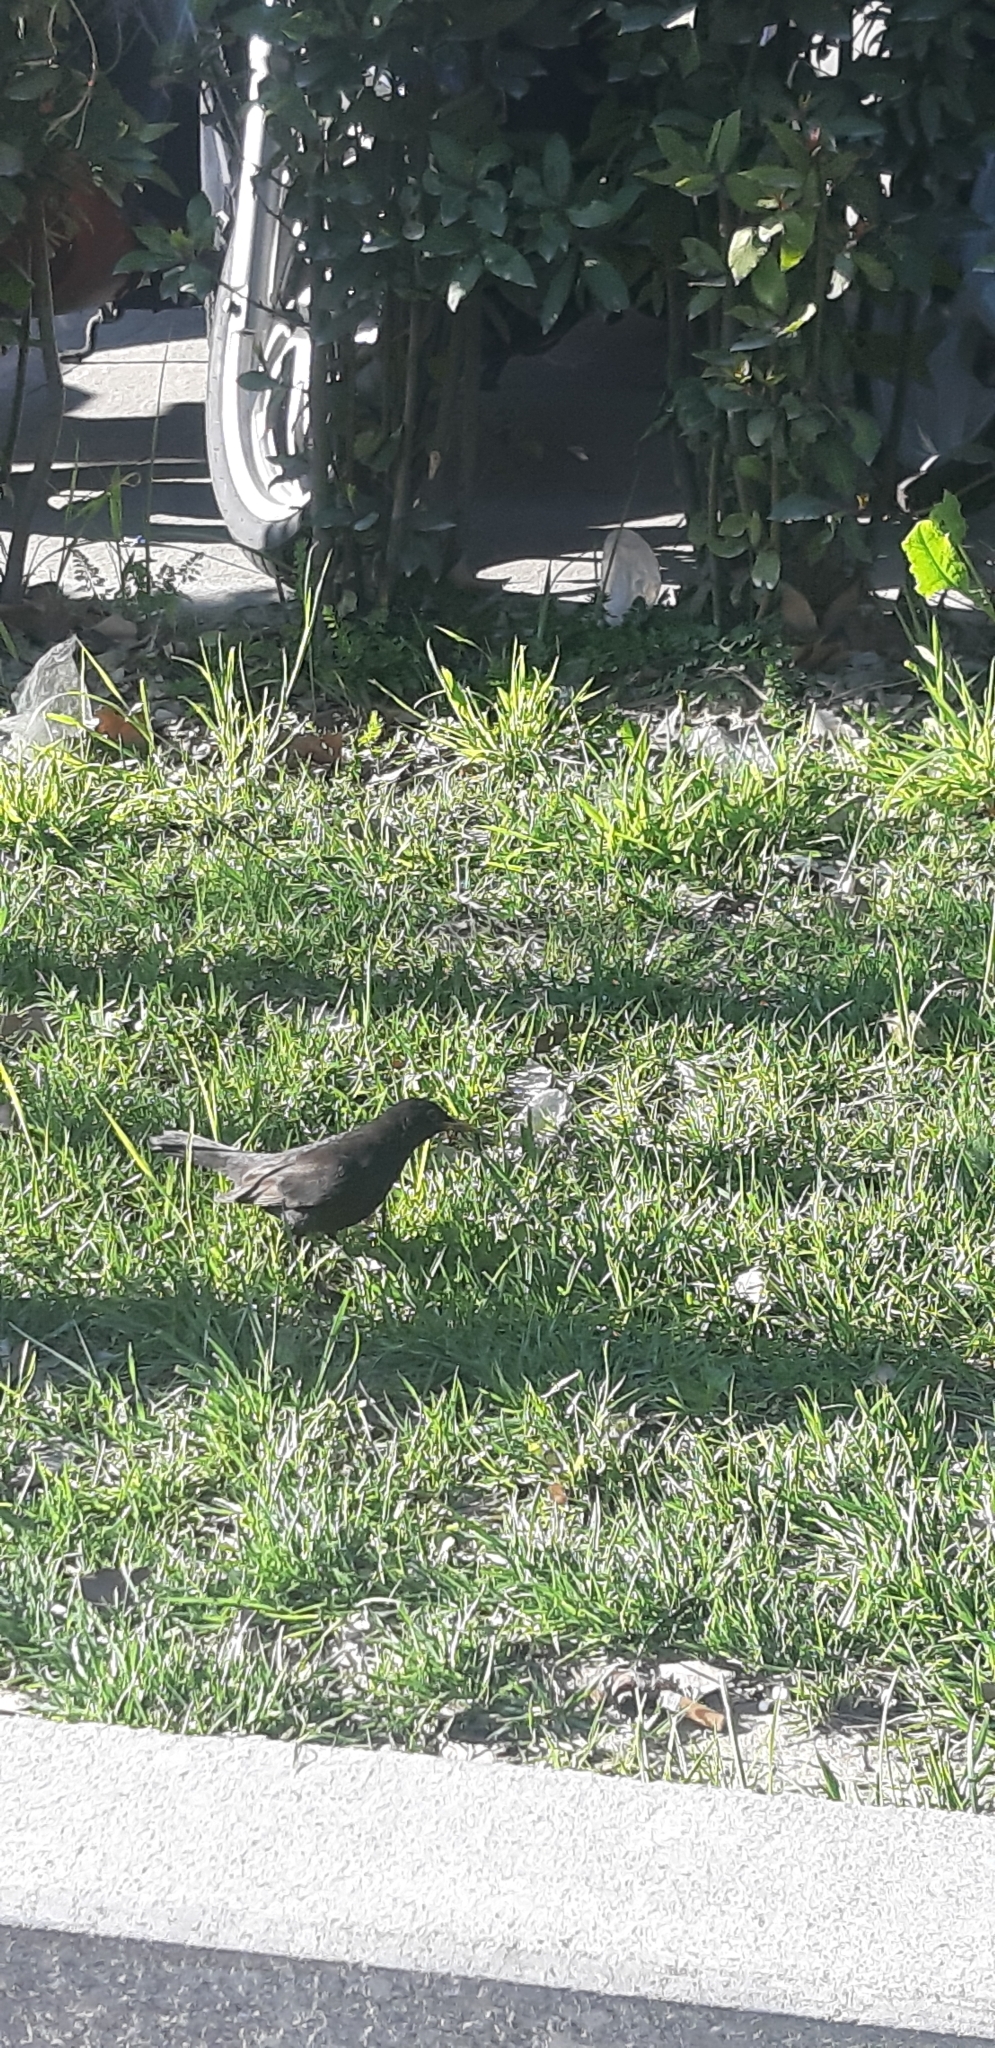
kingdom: Animalia
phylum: Chordata
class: Aves
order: Passeriformes
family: Turdidae
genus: Turdus
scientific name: Turdus merula
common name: Common blackbird
